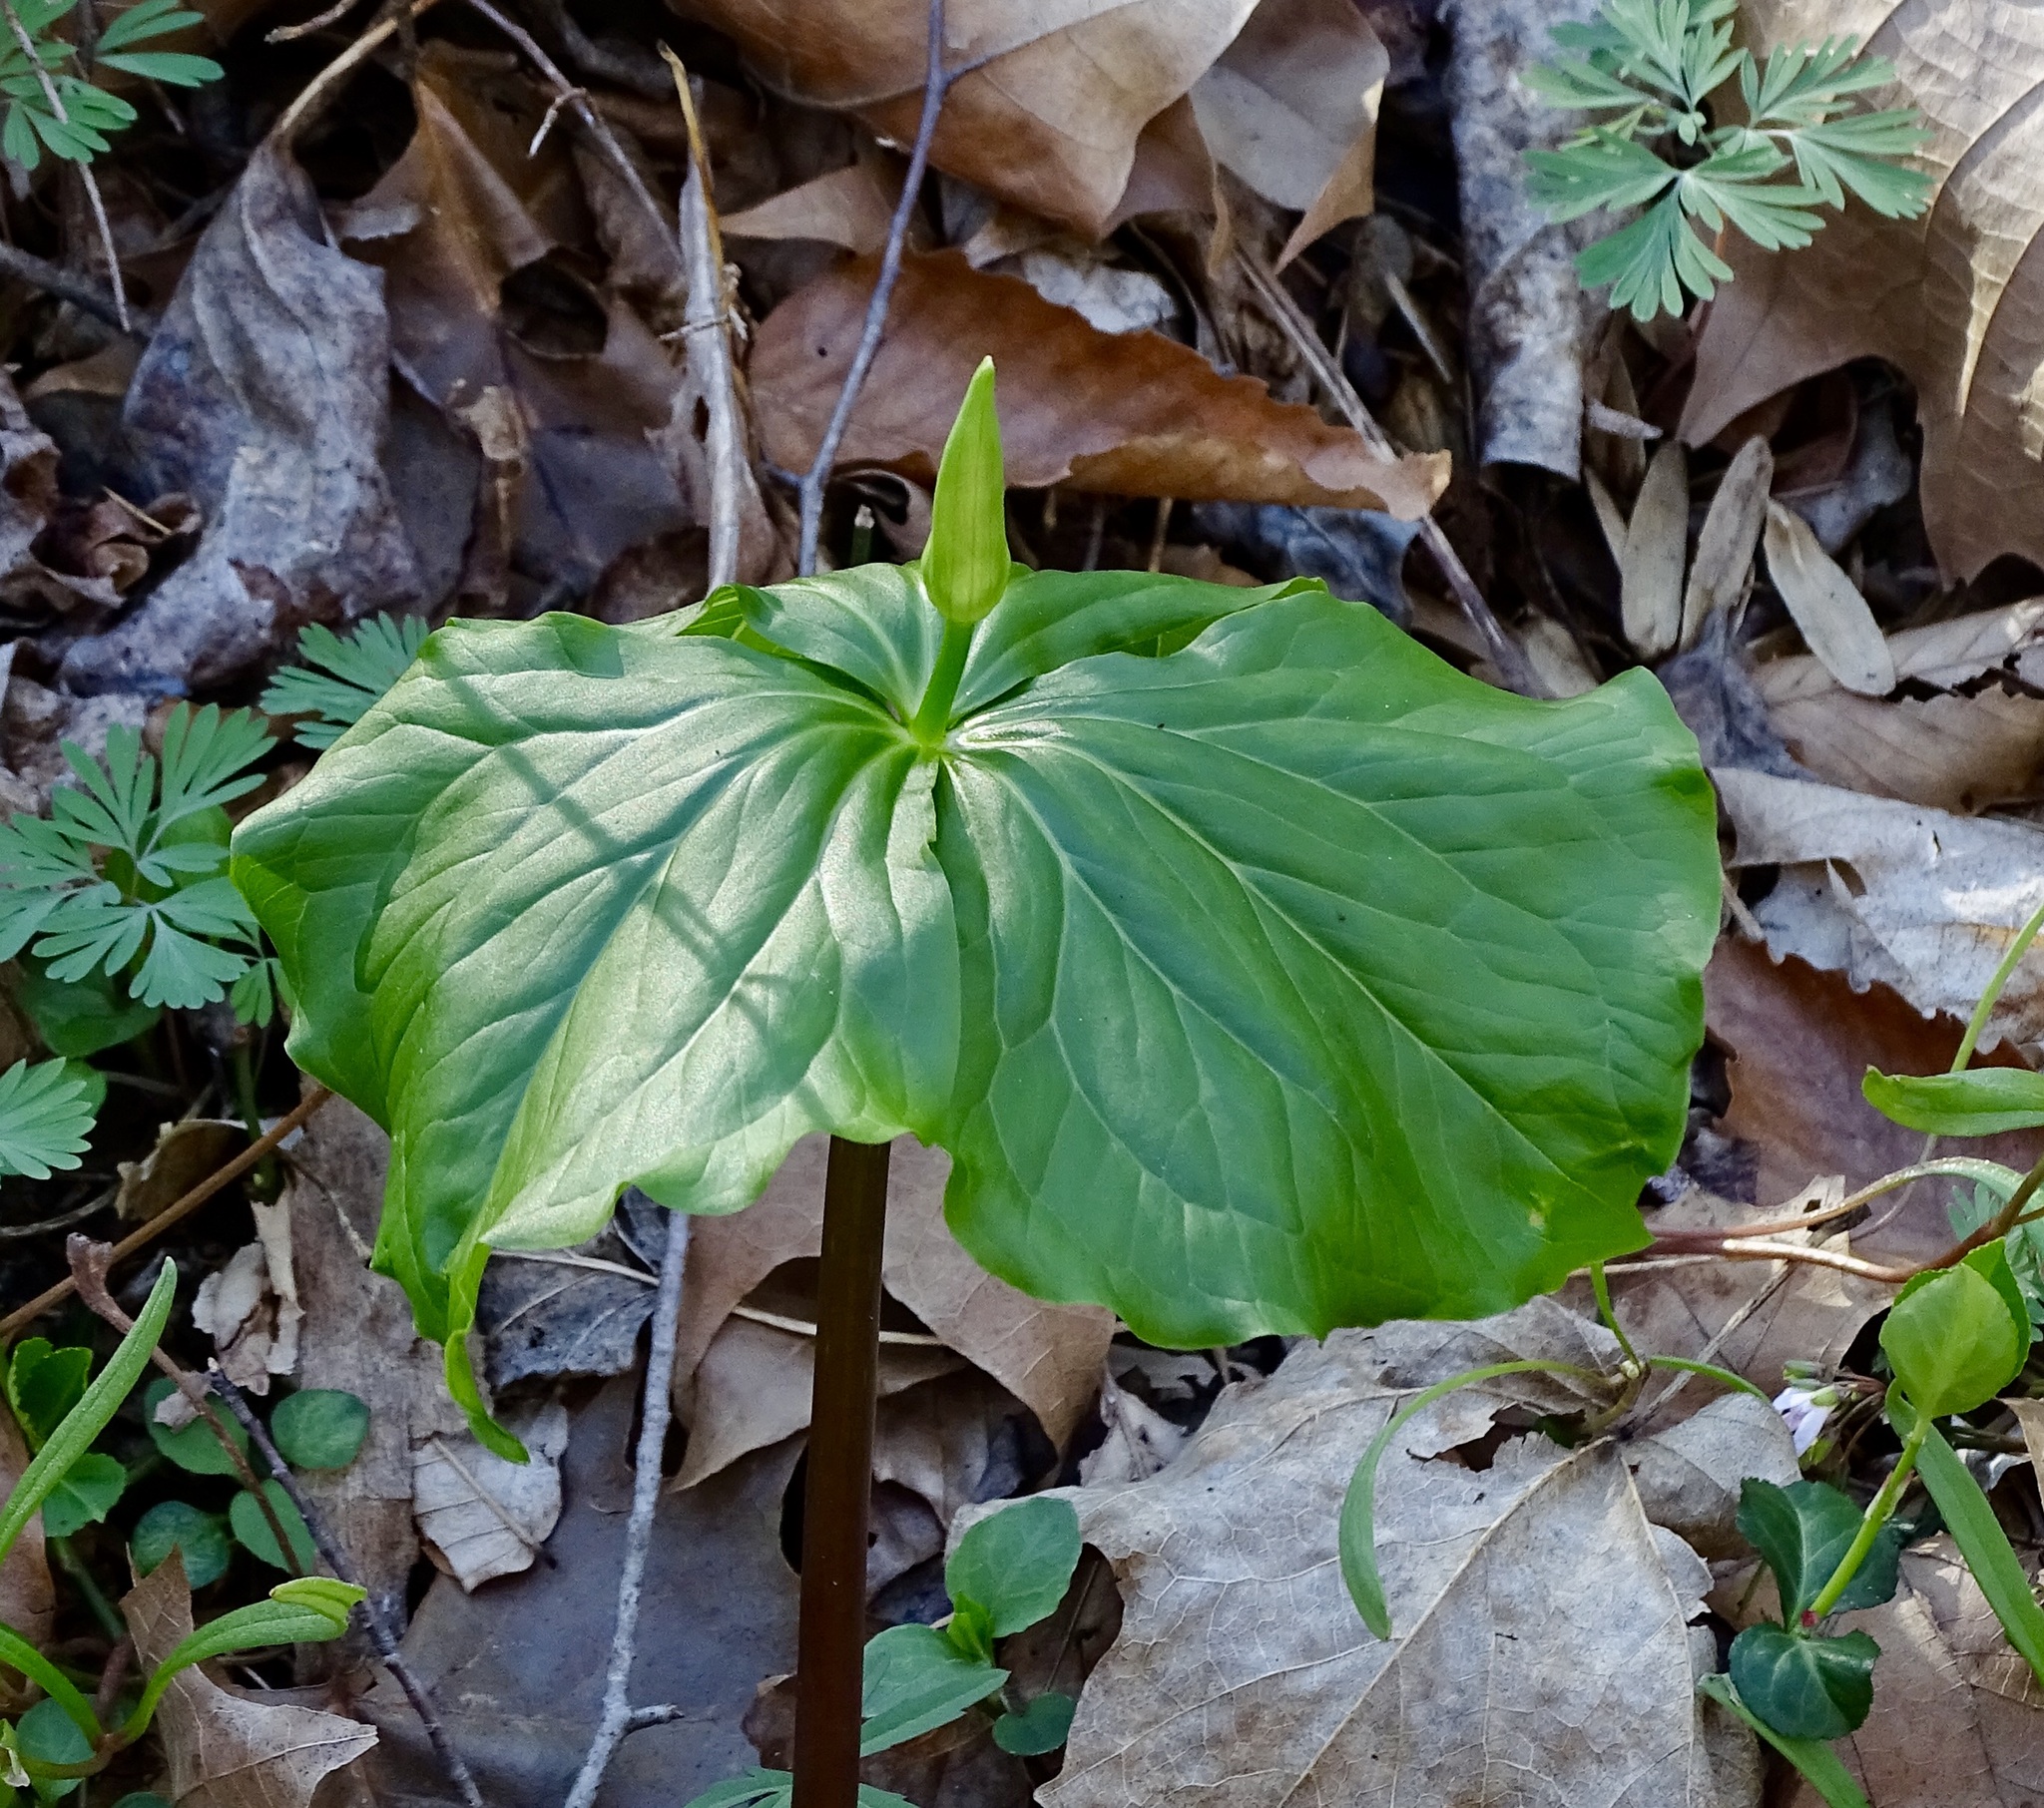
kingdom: Plantae
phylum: Tracheophyta
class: Liliopsida
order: Liliales
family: Melanthiaceae
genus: Trillium
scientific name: Trillium flexipes
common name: Drooping trillium
